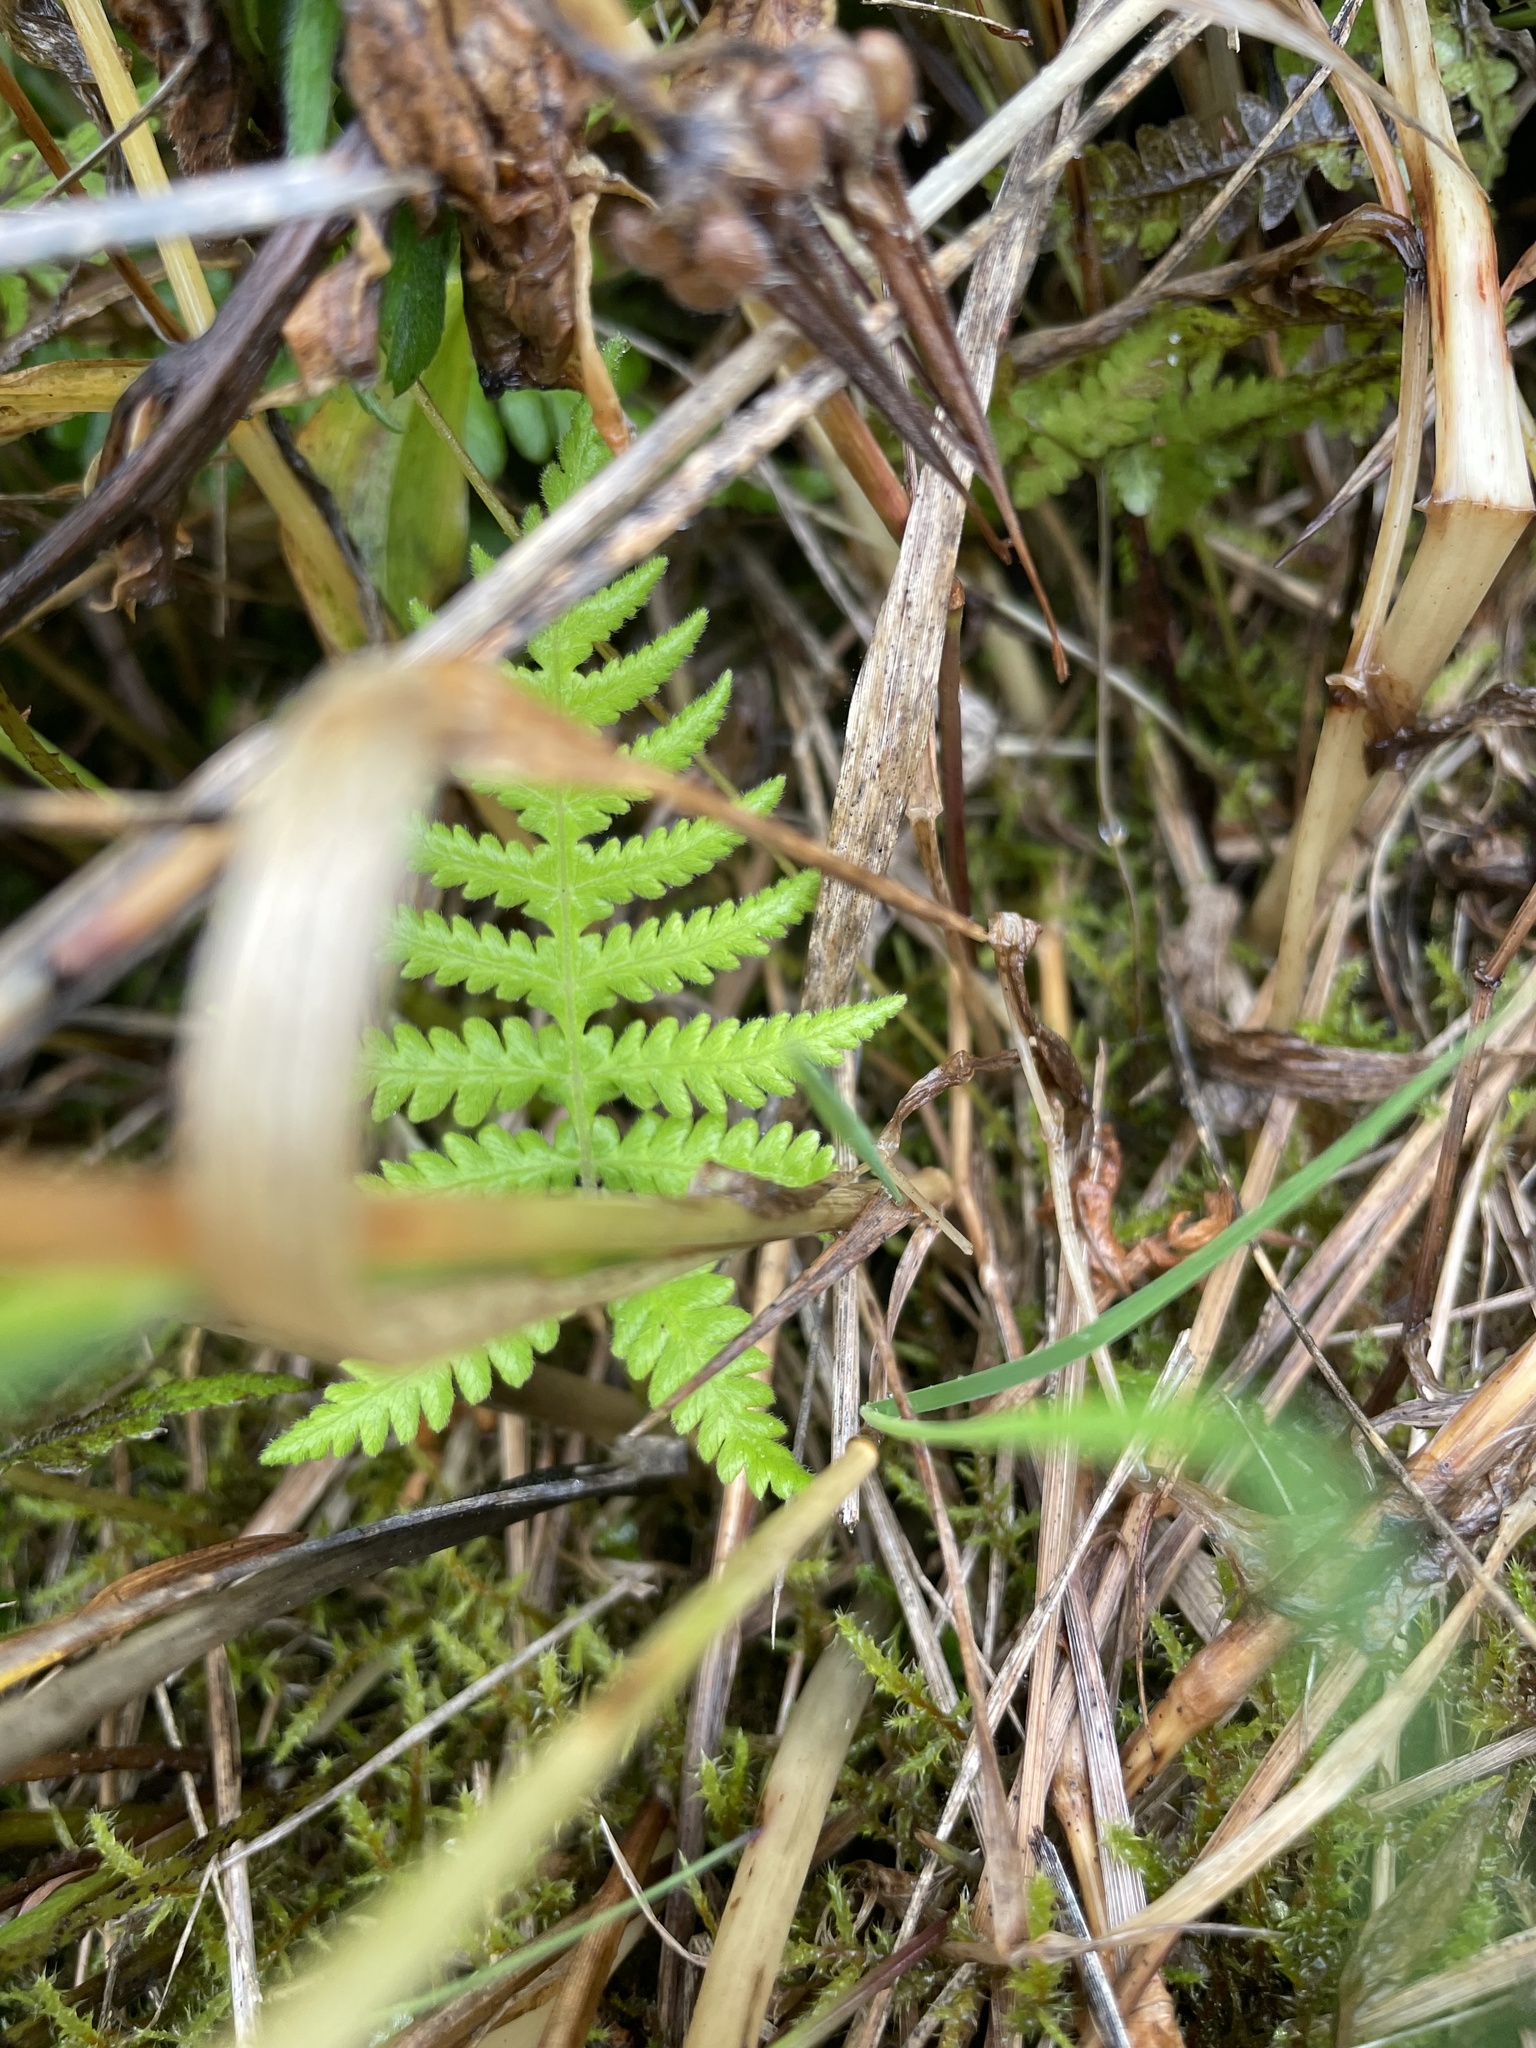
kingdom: Plantae
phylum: Tracheophyta
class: Polypodiopsida
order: Polypodiales
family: Thelypteridaceae
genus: Phegopteris
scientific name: Phegopteris connectilis
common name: Beech fern
